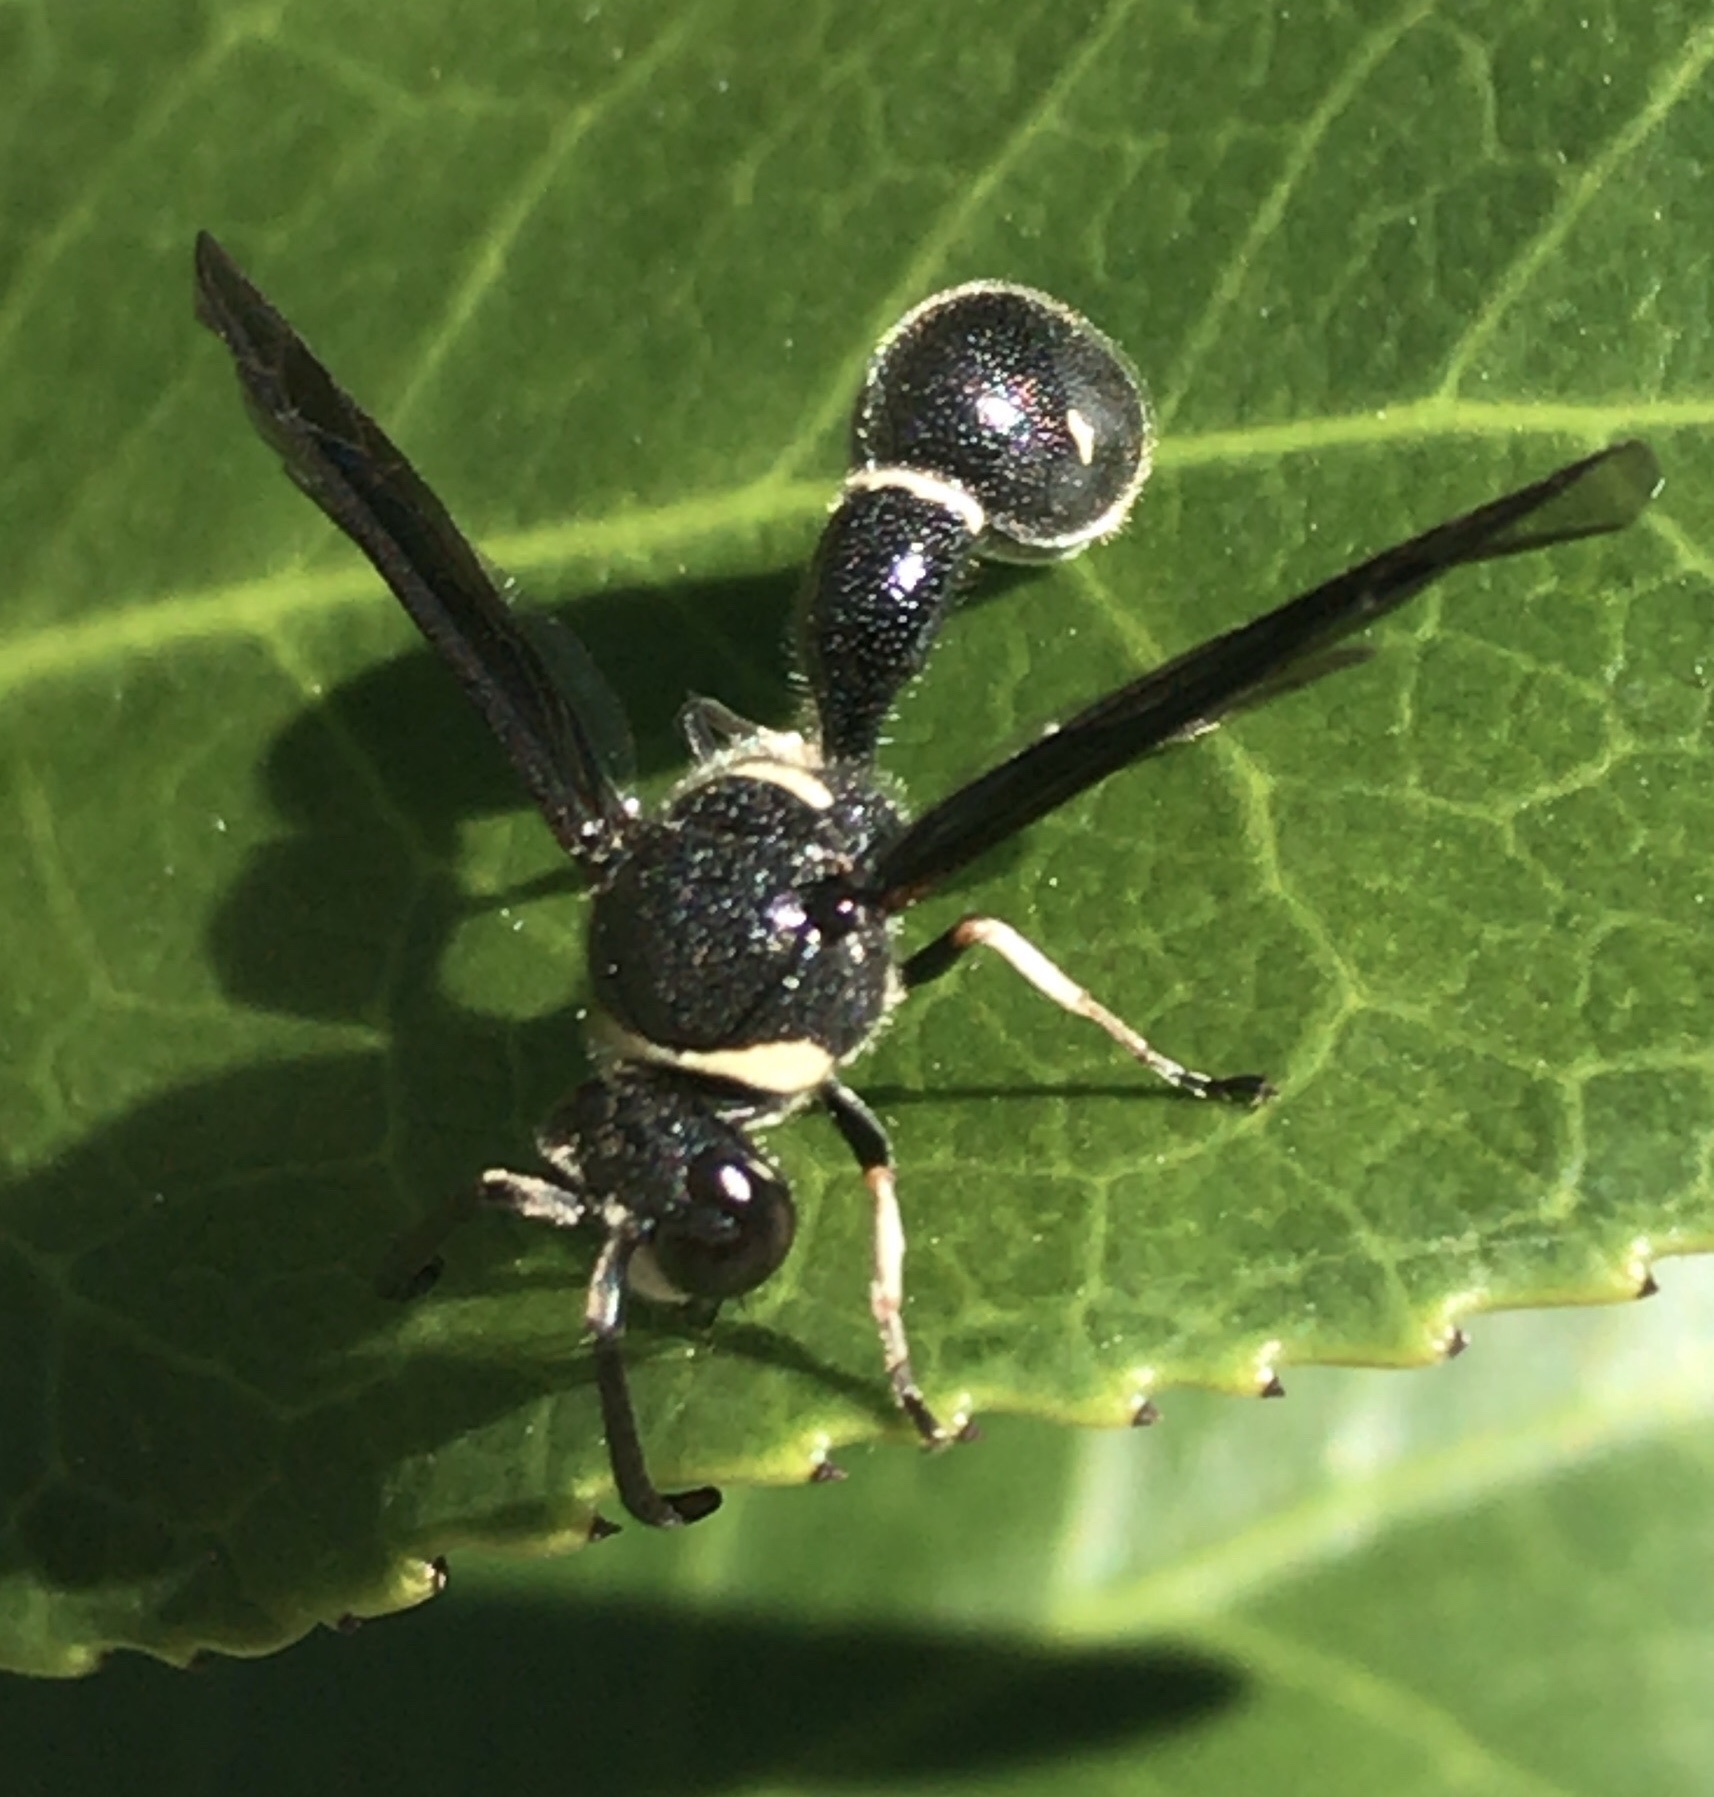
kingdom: Animalia
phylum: Arthropoda
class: Insecta
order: Hymenoptera
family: Vespidae
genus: Eumenes
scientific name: Eumenes fraternus
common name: Fraternal potter wasp
